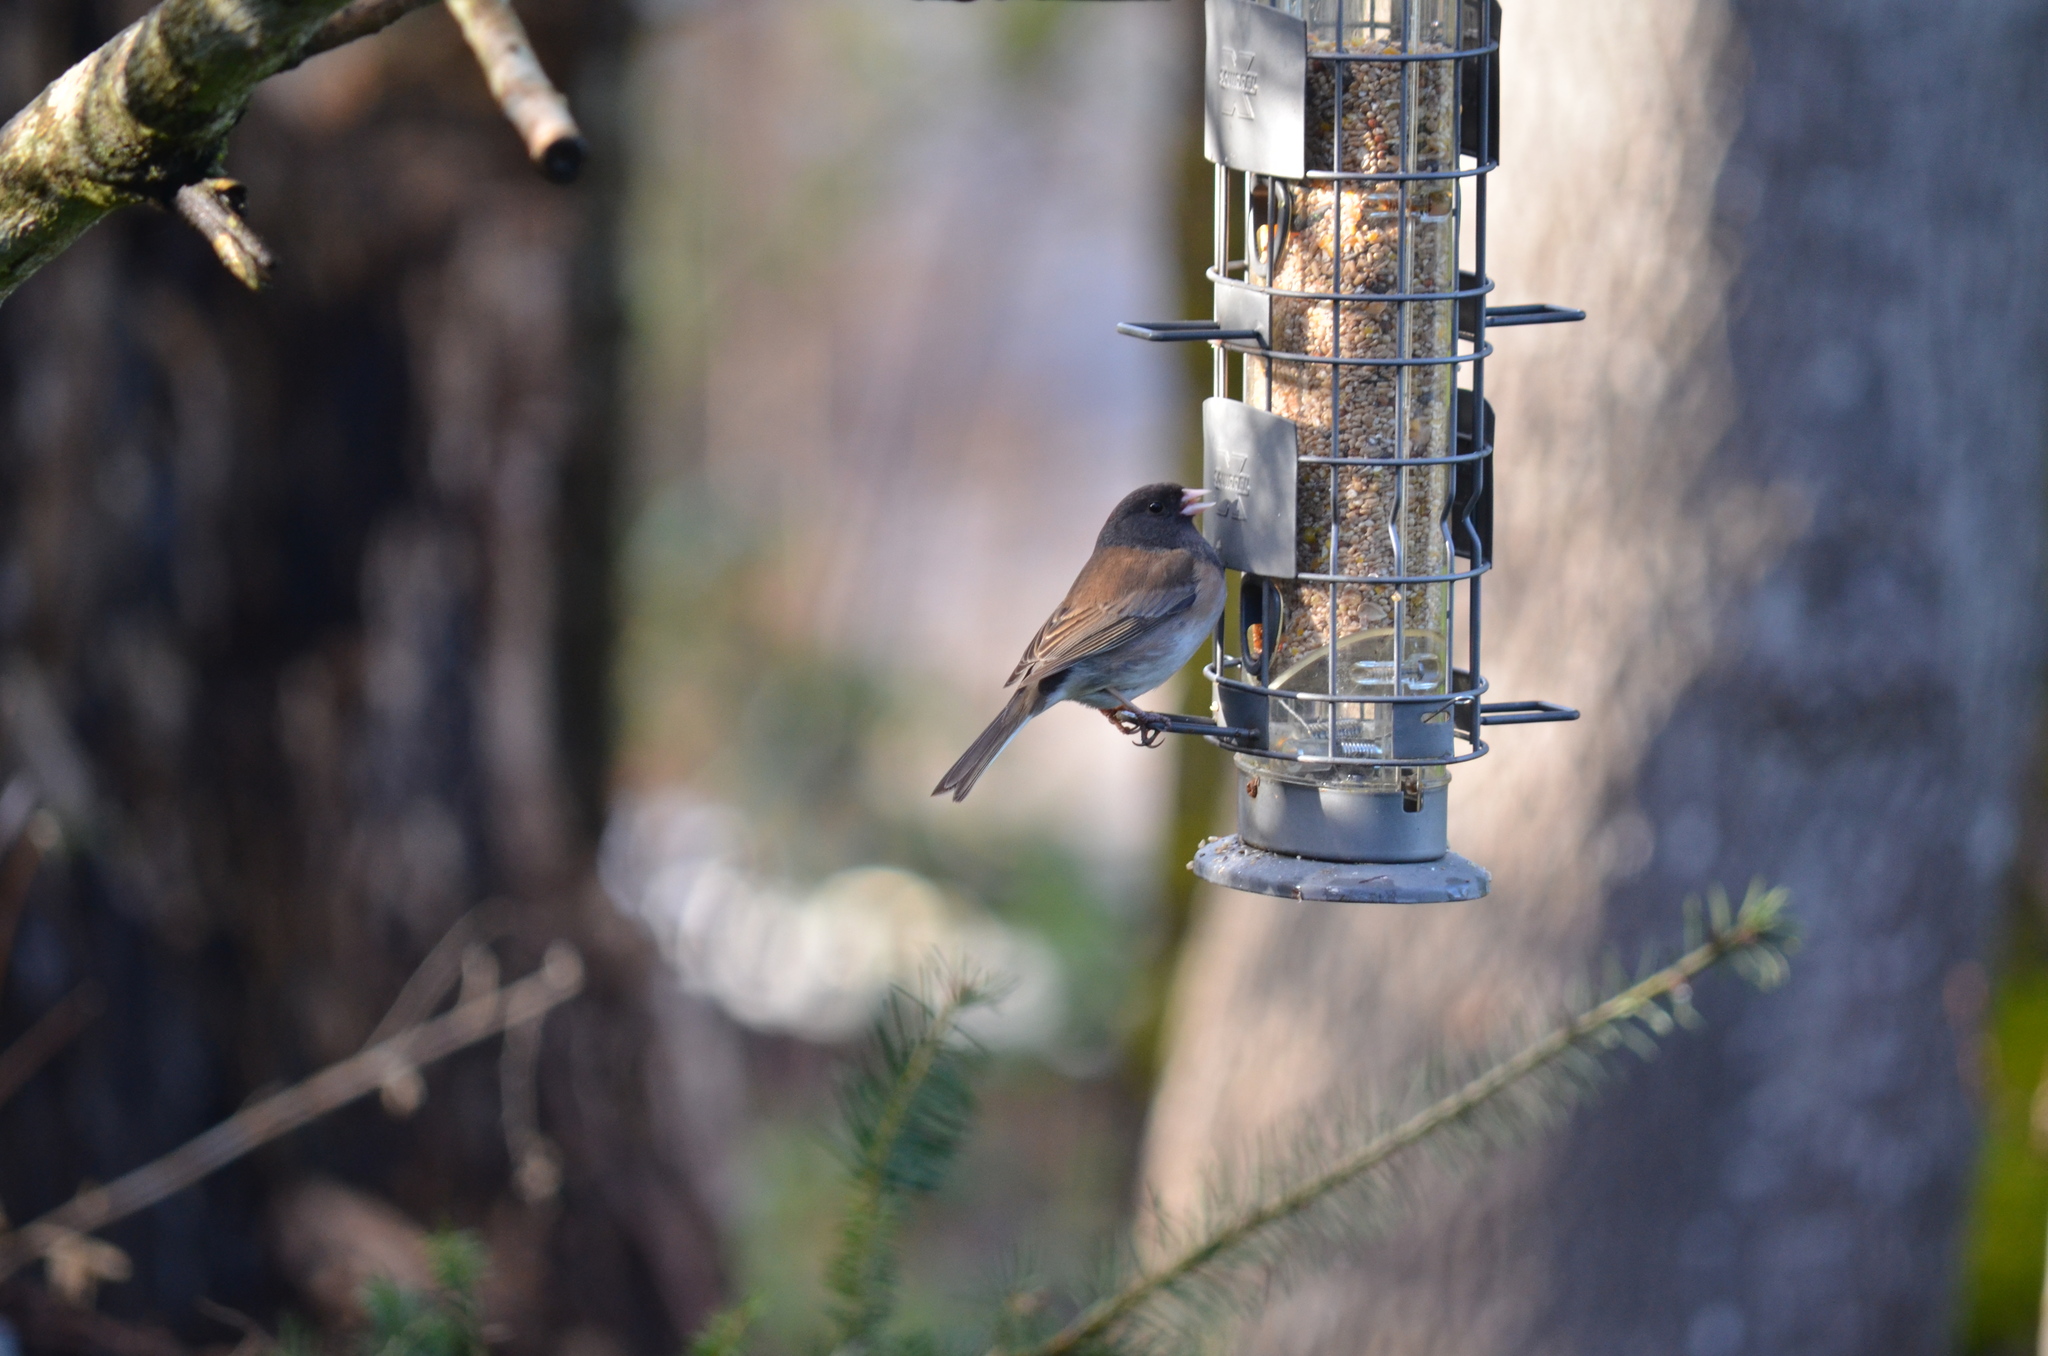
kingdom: Animalia
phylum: Chordata
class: Aves
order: Passeriformes
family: Passerellidae
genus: Junco
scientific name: Junco hyemalis
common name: Dark-eyed junco
